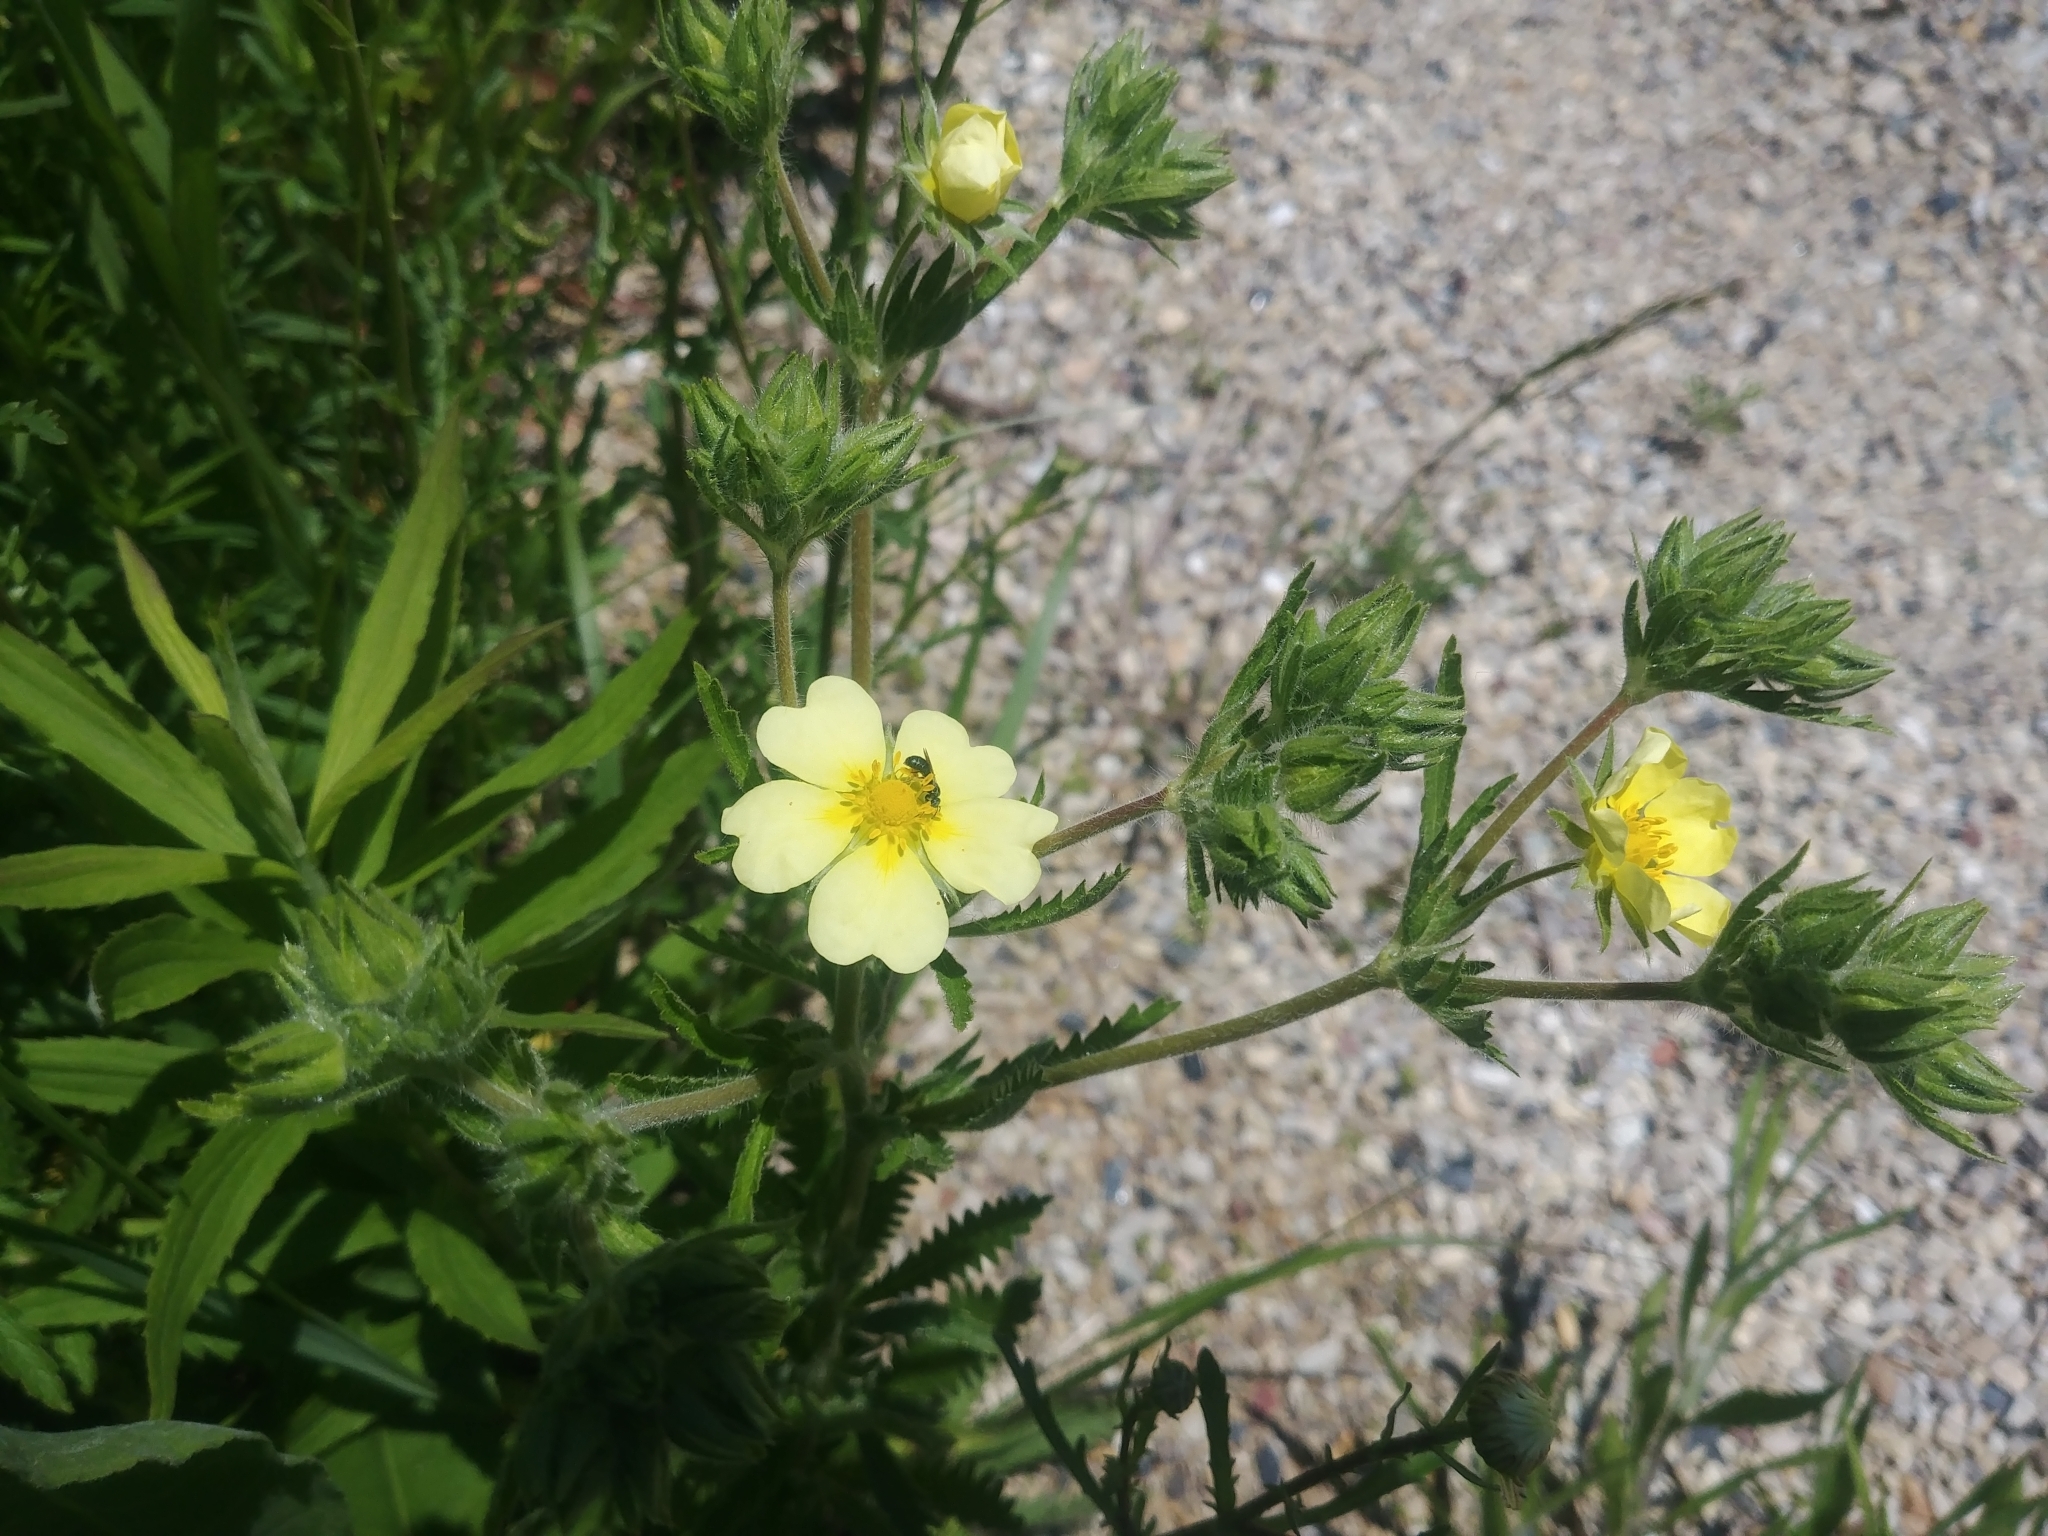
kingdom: Plantae
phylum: Tracheophyta
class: Magnoliopsida
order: Rosales
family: Rosaceae
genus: Potentilla
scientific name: Potentilla recta
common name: Sulphur cinquefoil
